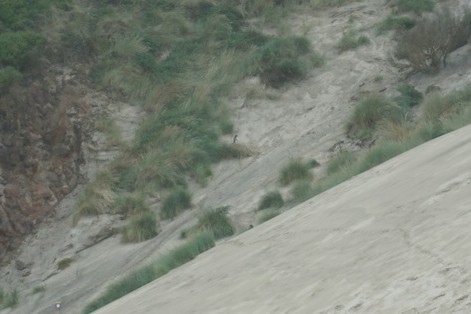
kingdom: Animalia
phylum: Chordata
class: Aves
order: Sphenisciformes
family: Spheniscidae
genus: Megadyptes
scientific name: Megadyptes antipodes
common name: Yellow-eyed penguin
